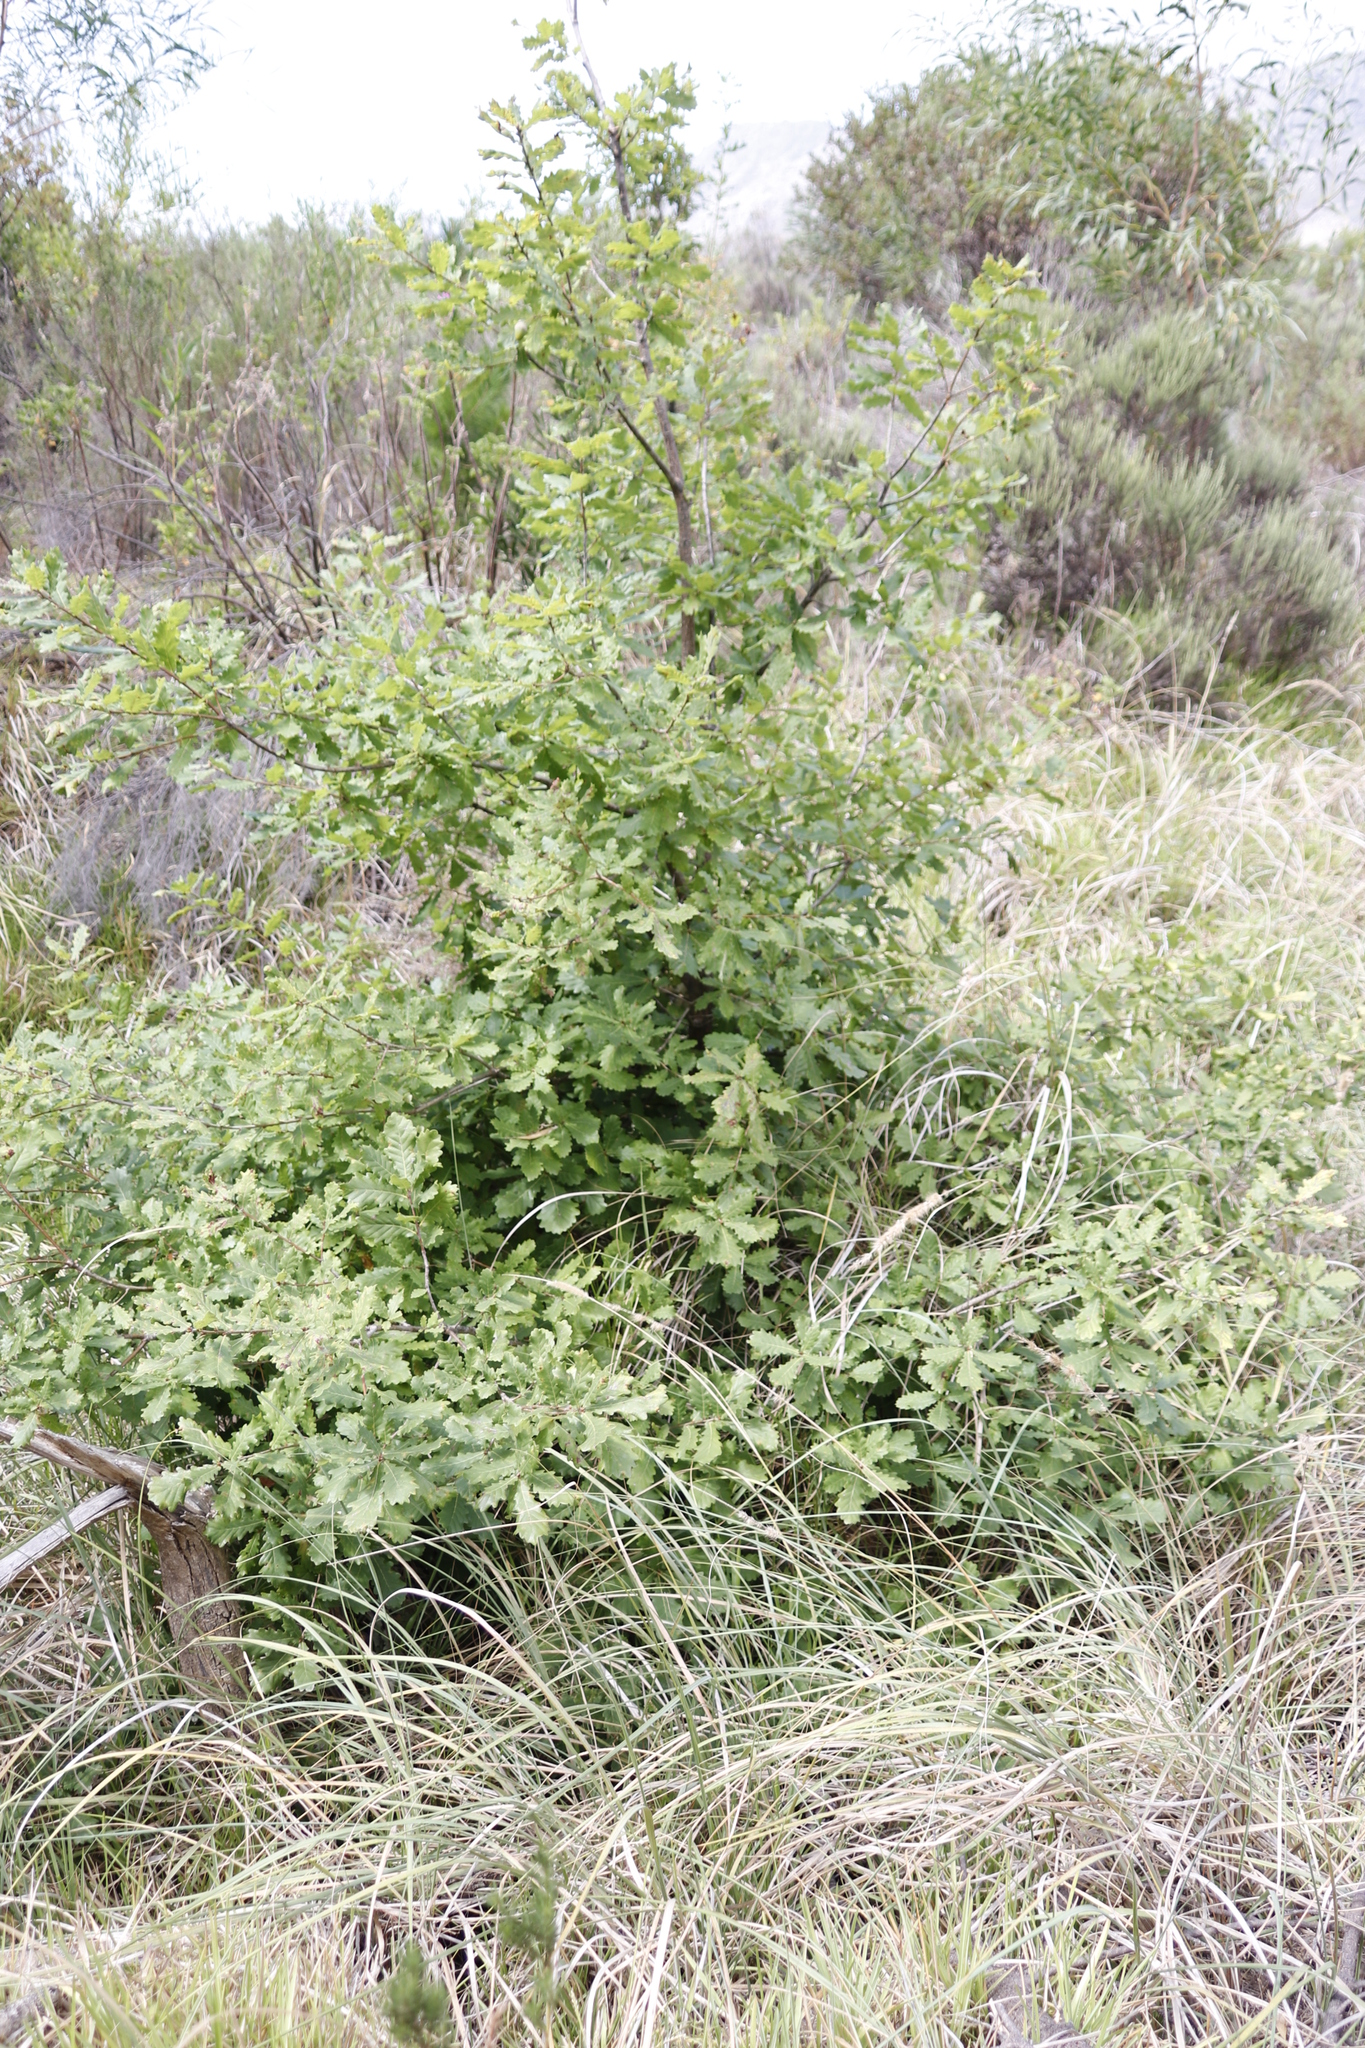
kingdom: Plantae
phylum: Tracheophyta
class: Magnoliopsida
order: Fagales
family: Fagaceae
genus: Quercus
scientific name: Quercus robur
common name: Pedunculate oak
